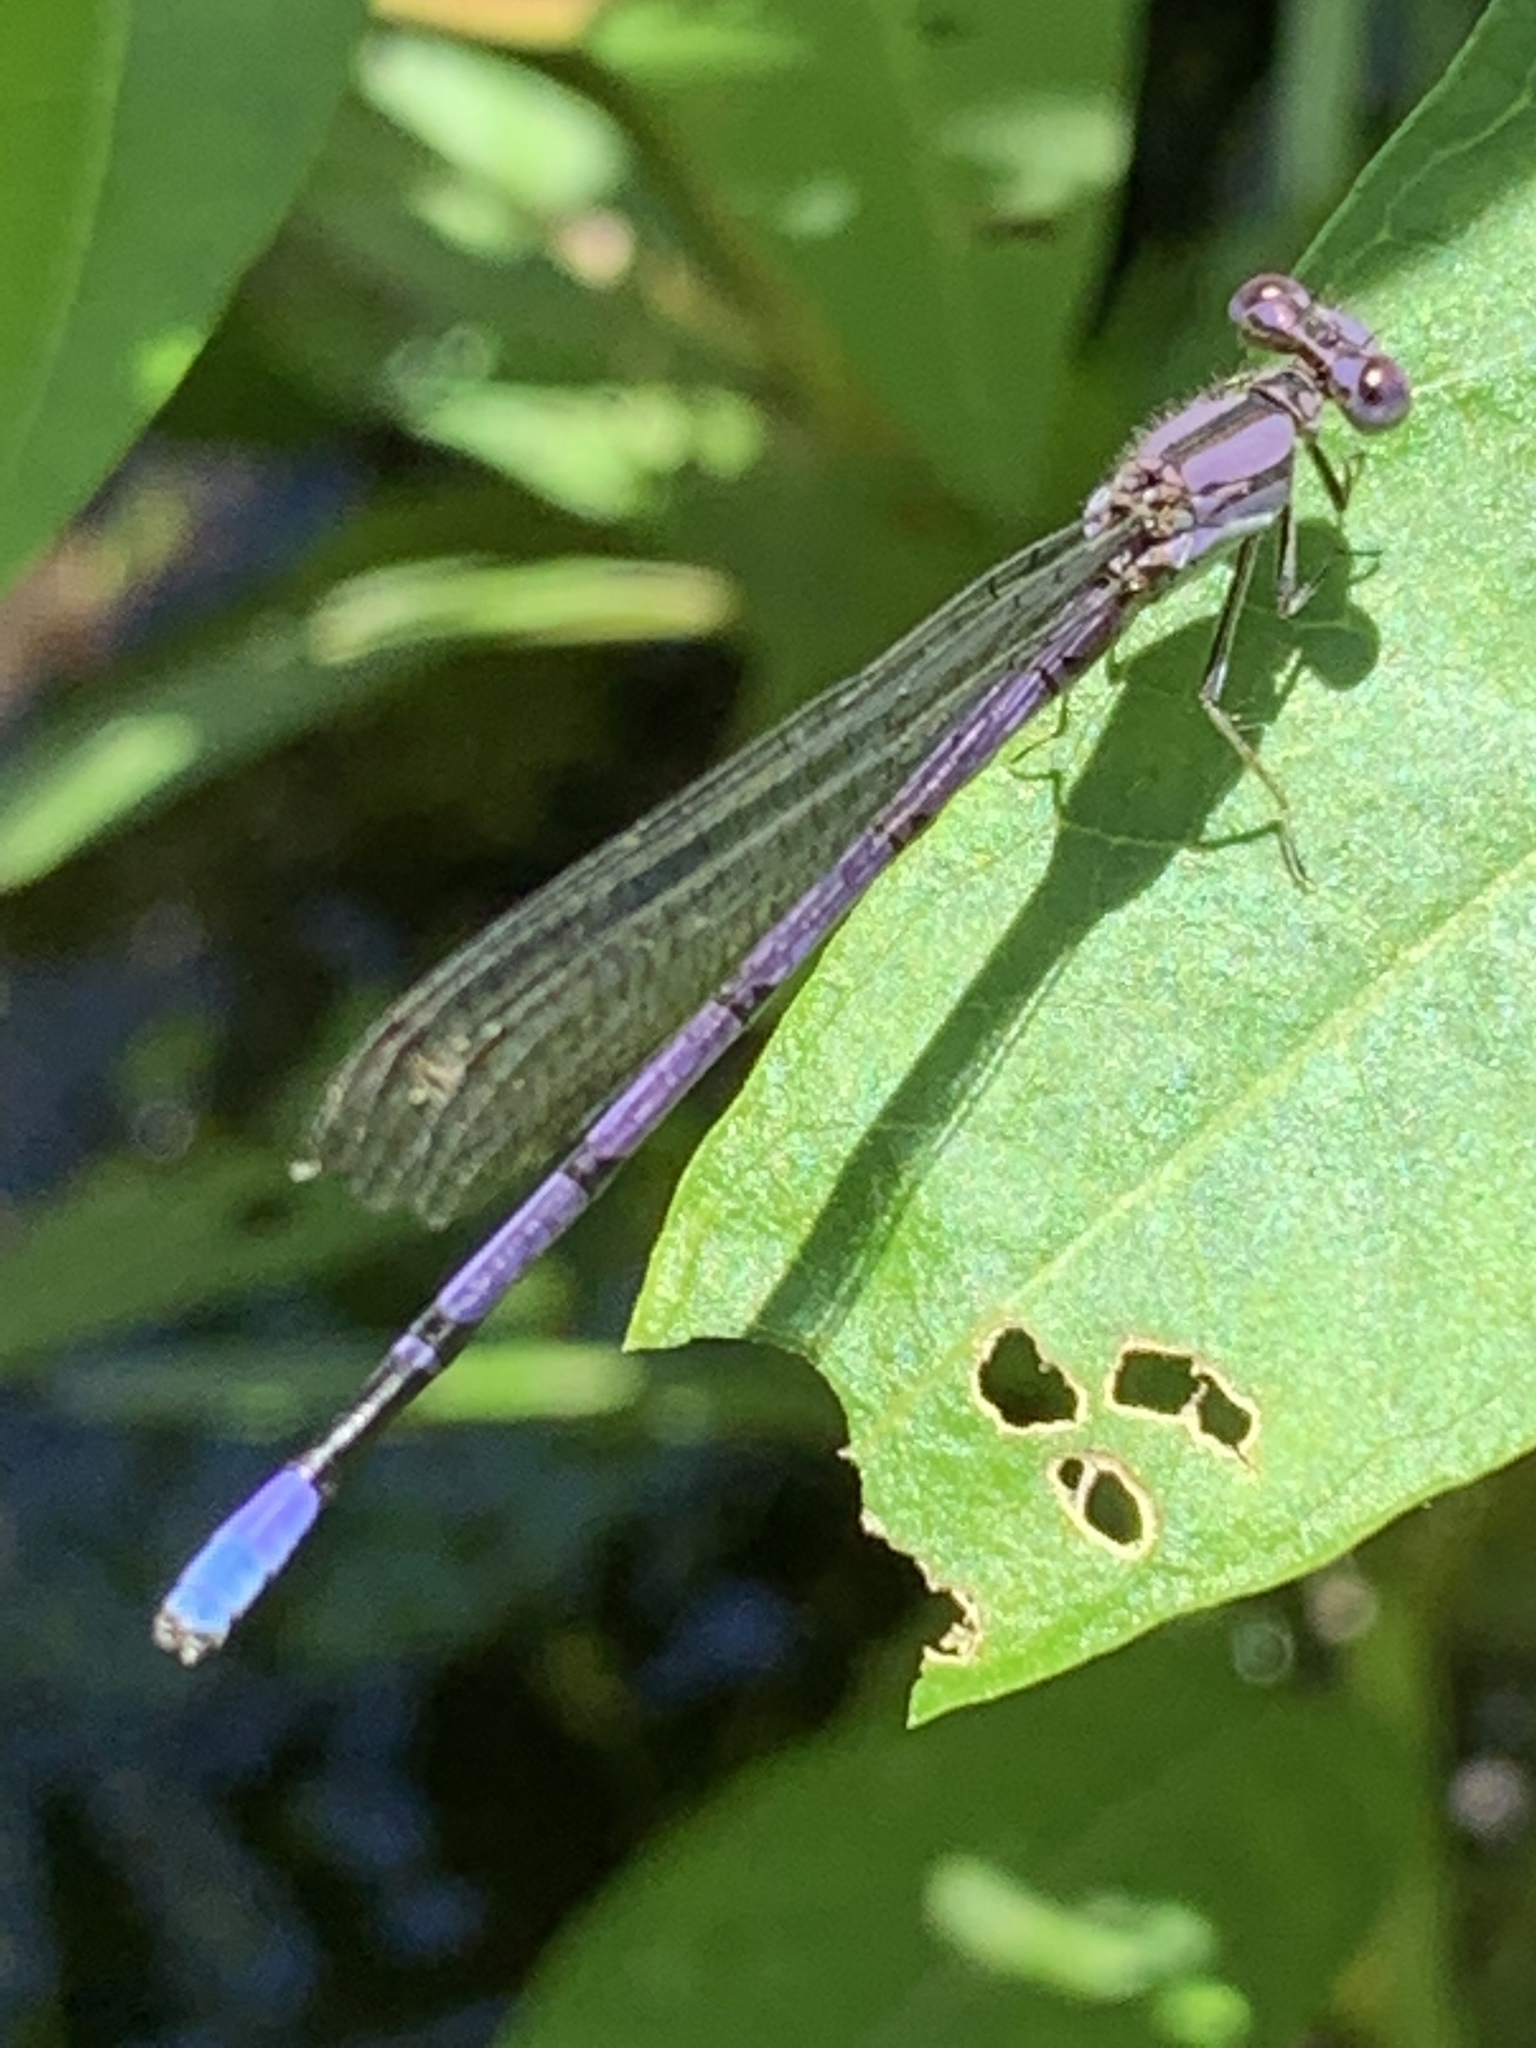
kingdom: Animalia
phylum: Arthropoda
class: Insecta
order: Odonata
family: Coenagrionidae
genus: Argia
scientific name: Argia fumipennis
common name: Variable dancer
